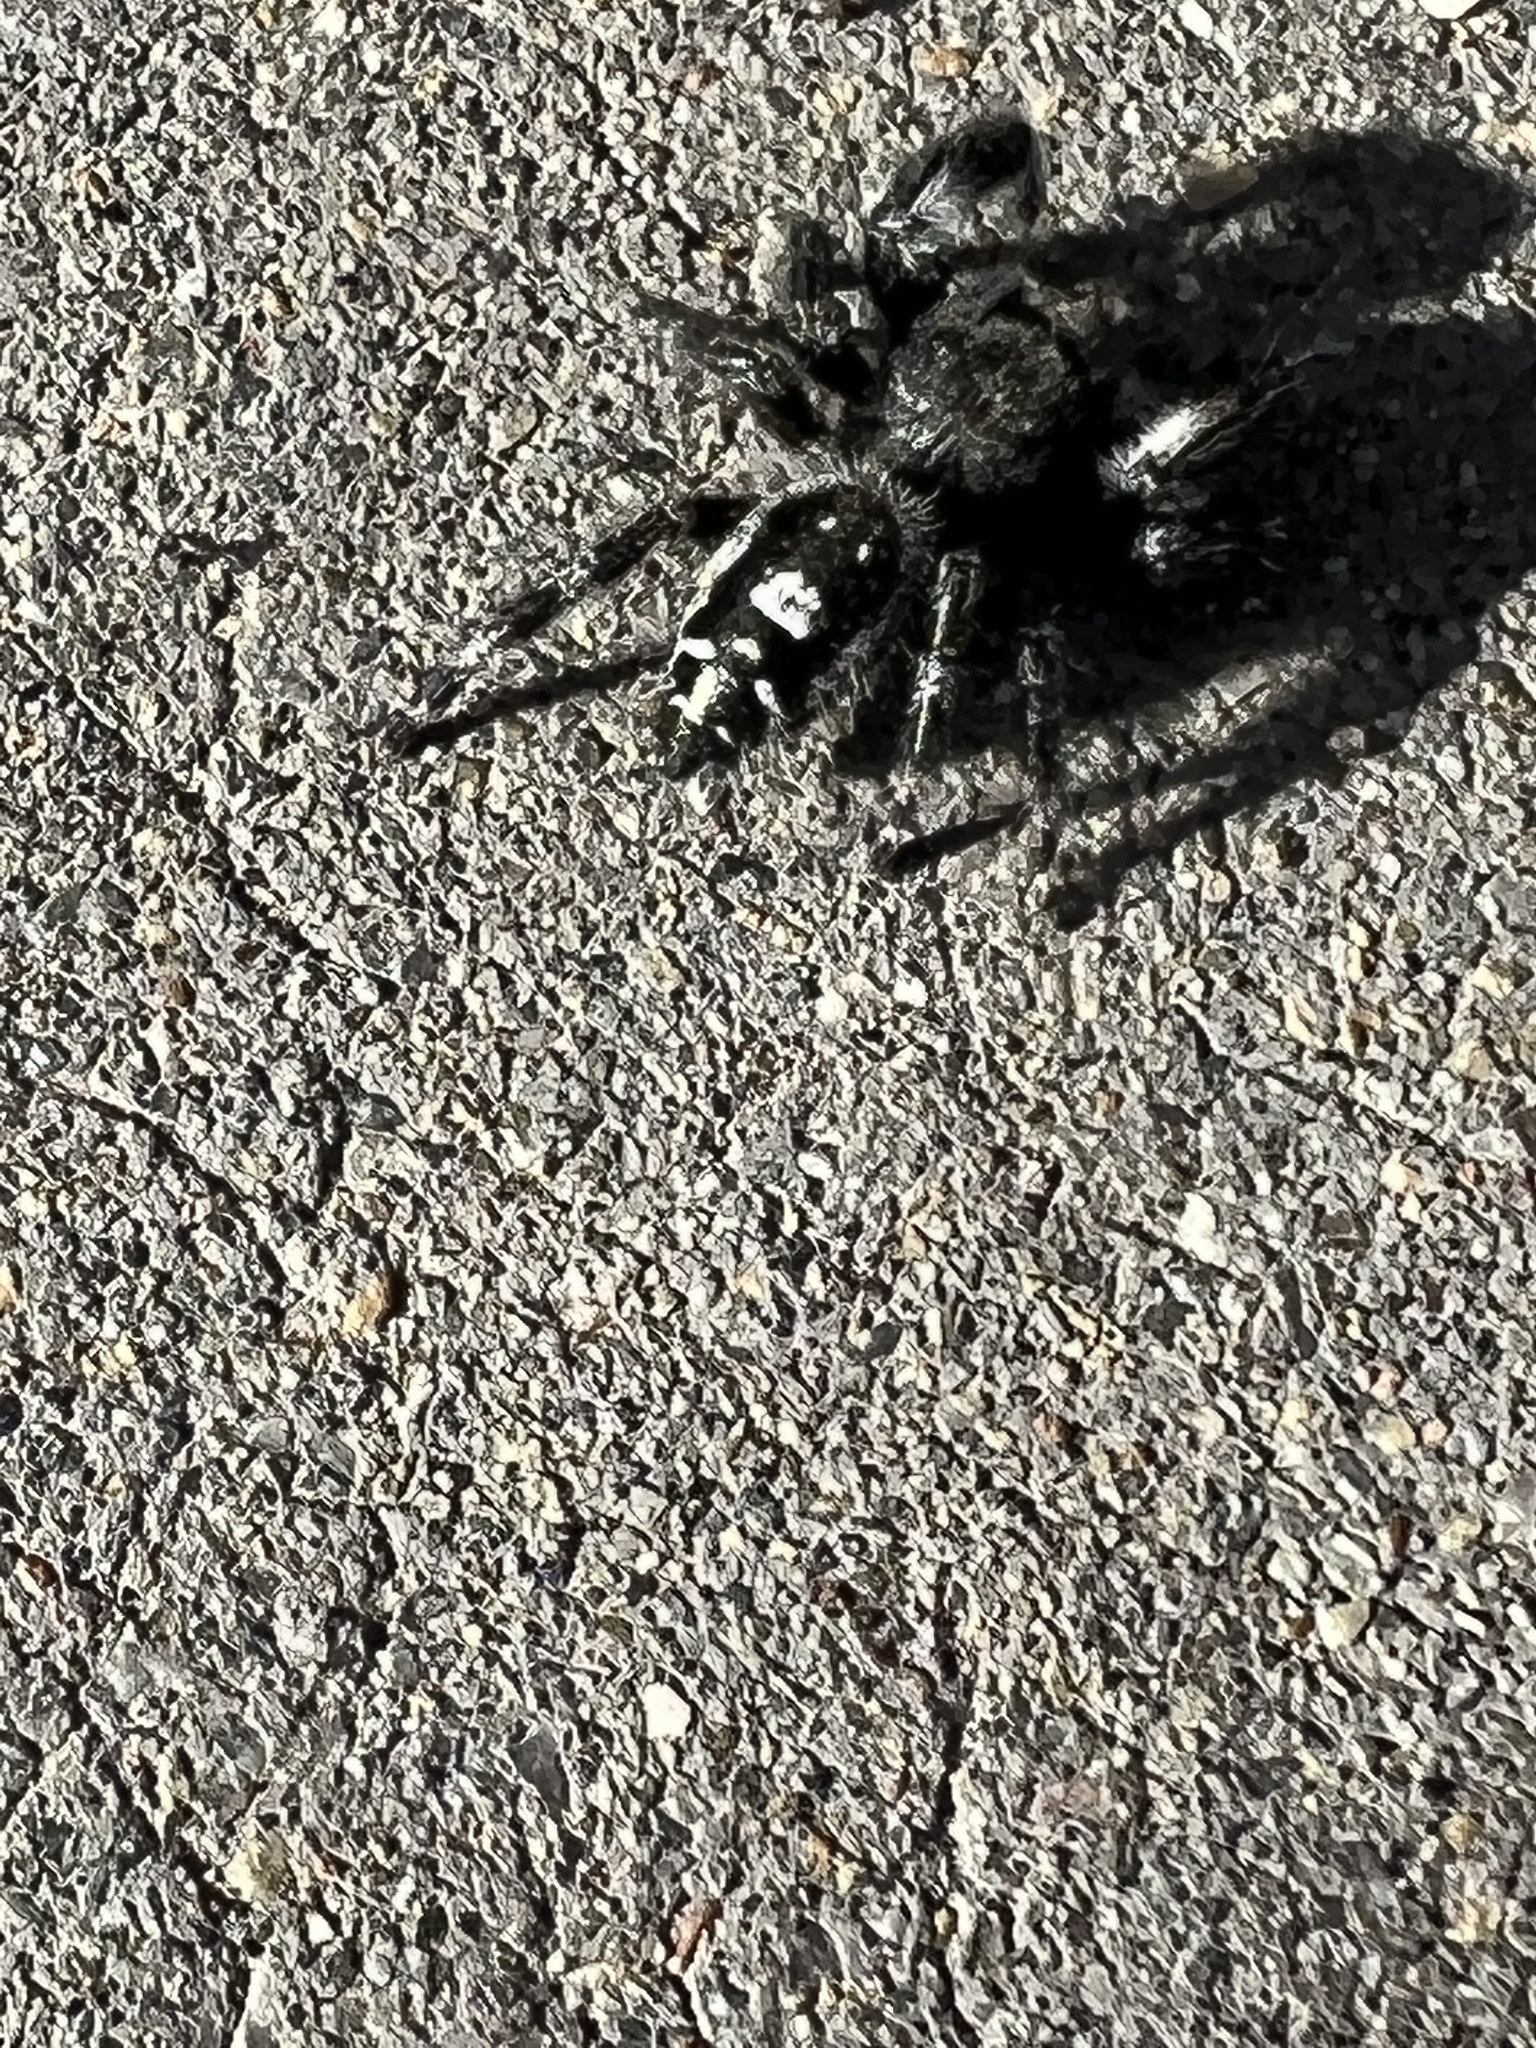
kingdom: Animalia
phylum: Arthropoda
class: Arachnida
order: Araneae
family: Salticidae
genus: Phidippus
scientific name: Phidippus audax
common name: Bold jumper
